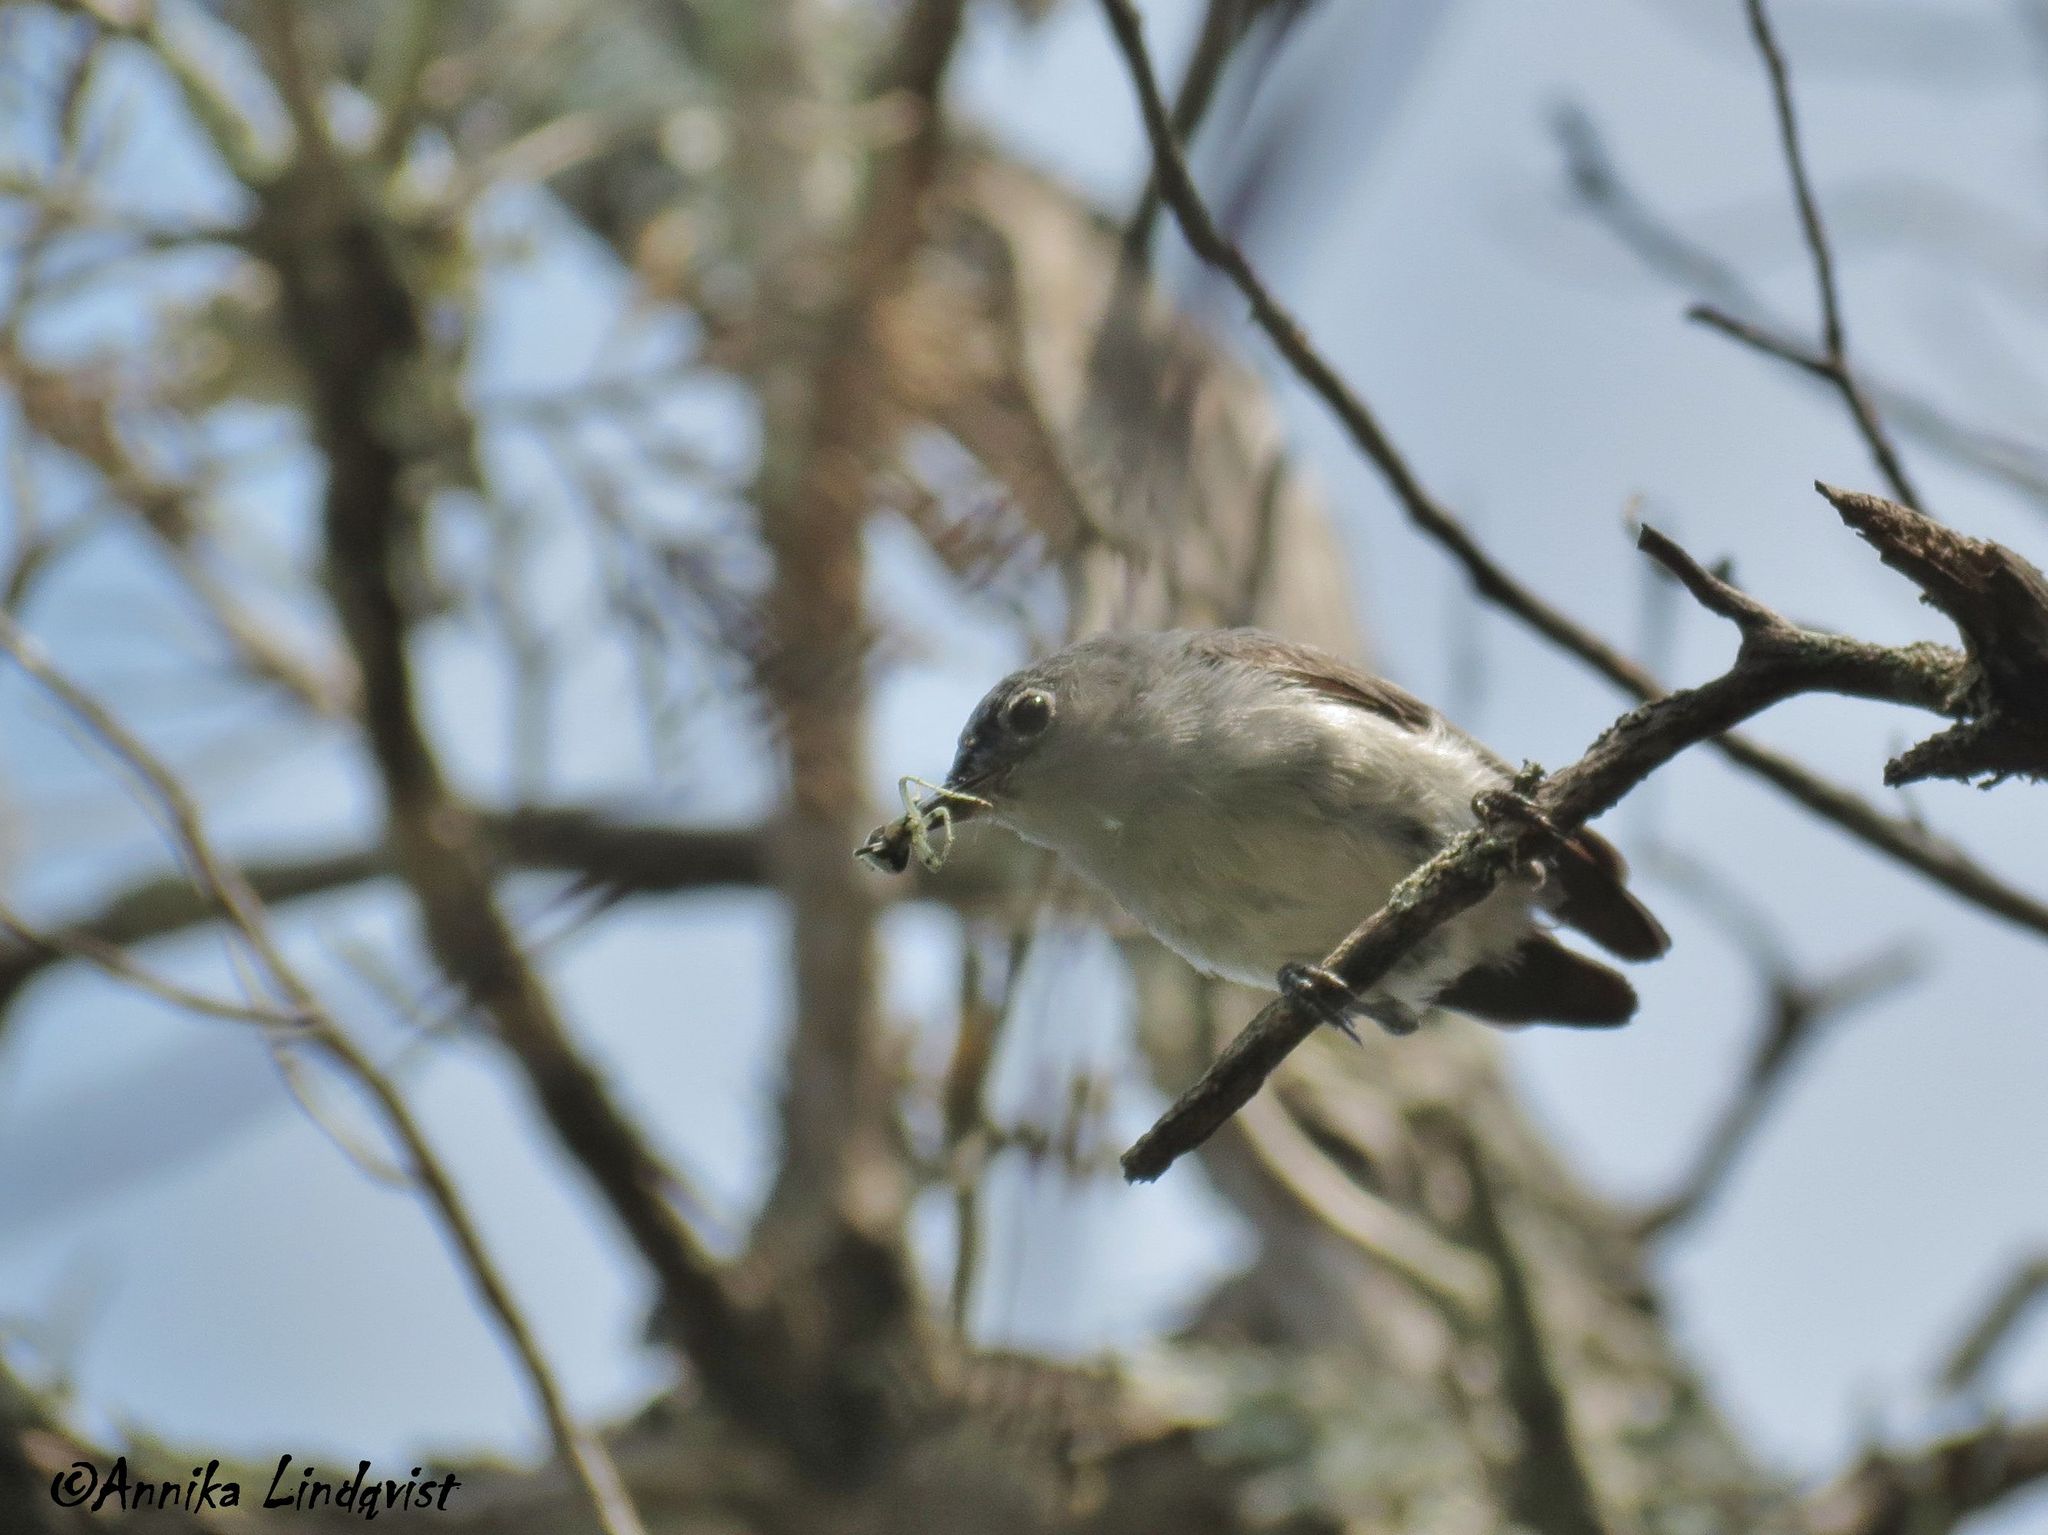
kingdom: Animalia
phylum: Chordata
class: Aves
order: Passeriformes
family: Polioptilidae
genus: Polioptila
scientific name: Polioptila caerulea
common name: Blue-gray gnatcatcher
